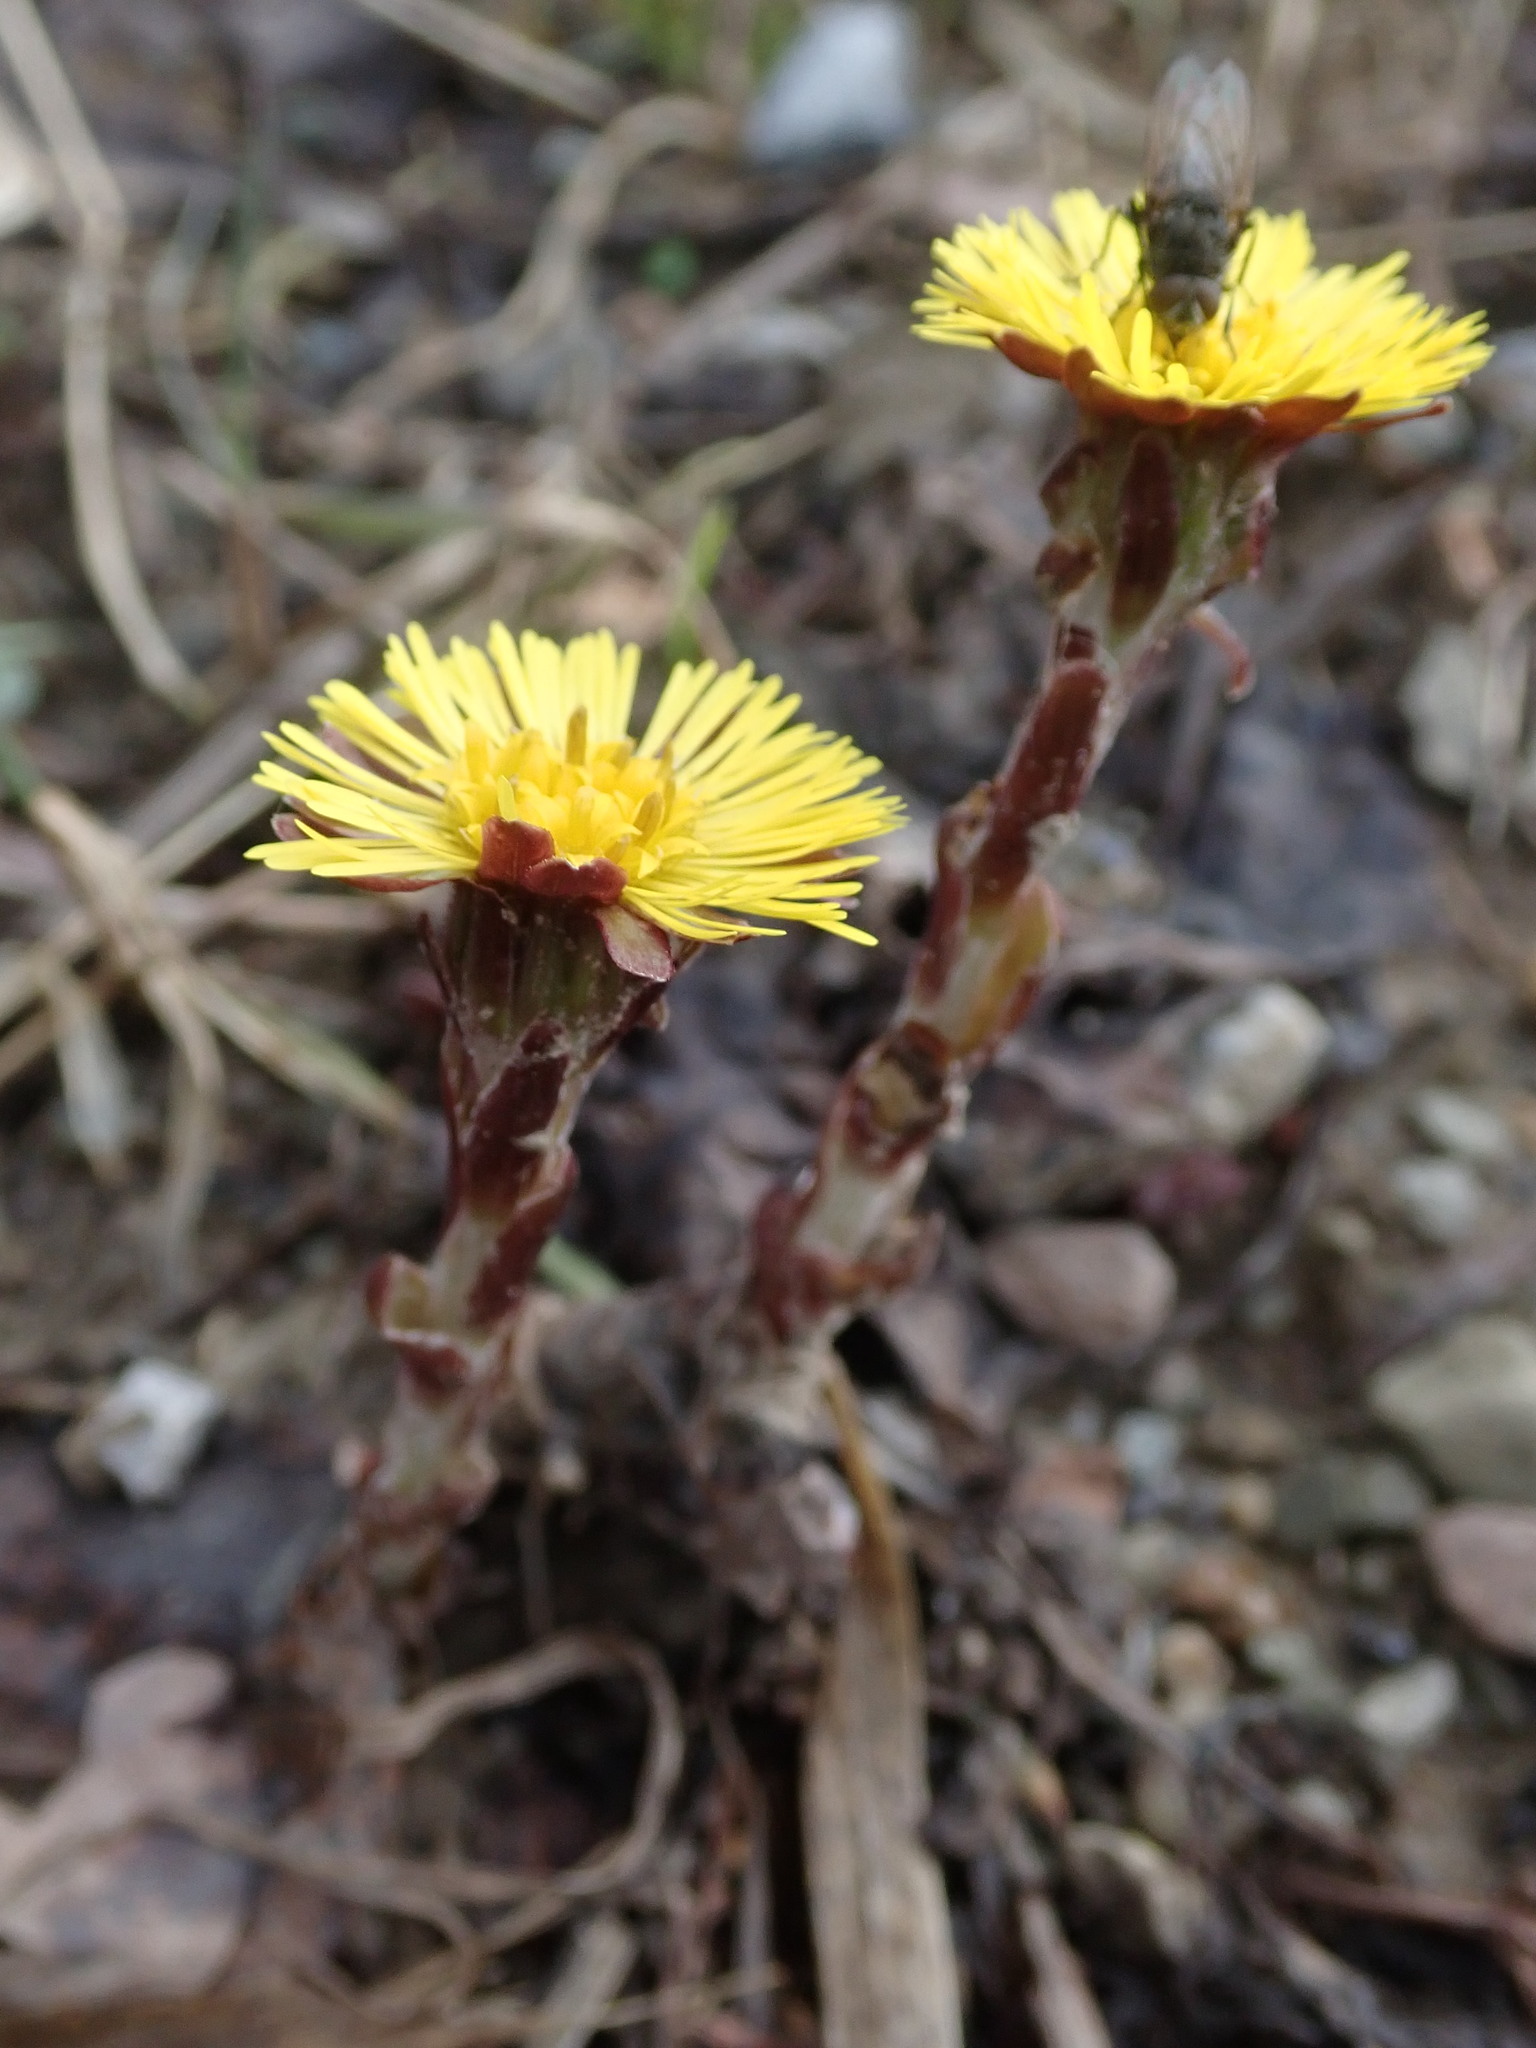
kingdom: Plantae
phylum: Tracheophyta
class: Magnoliopsida
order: Asterales
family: Asteraceae
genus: Tussilago
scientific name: Tussilago farfara
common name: Coltsfoot
